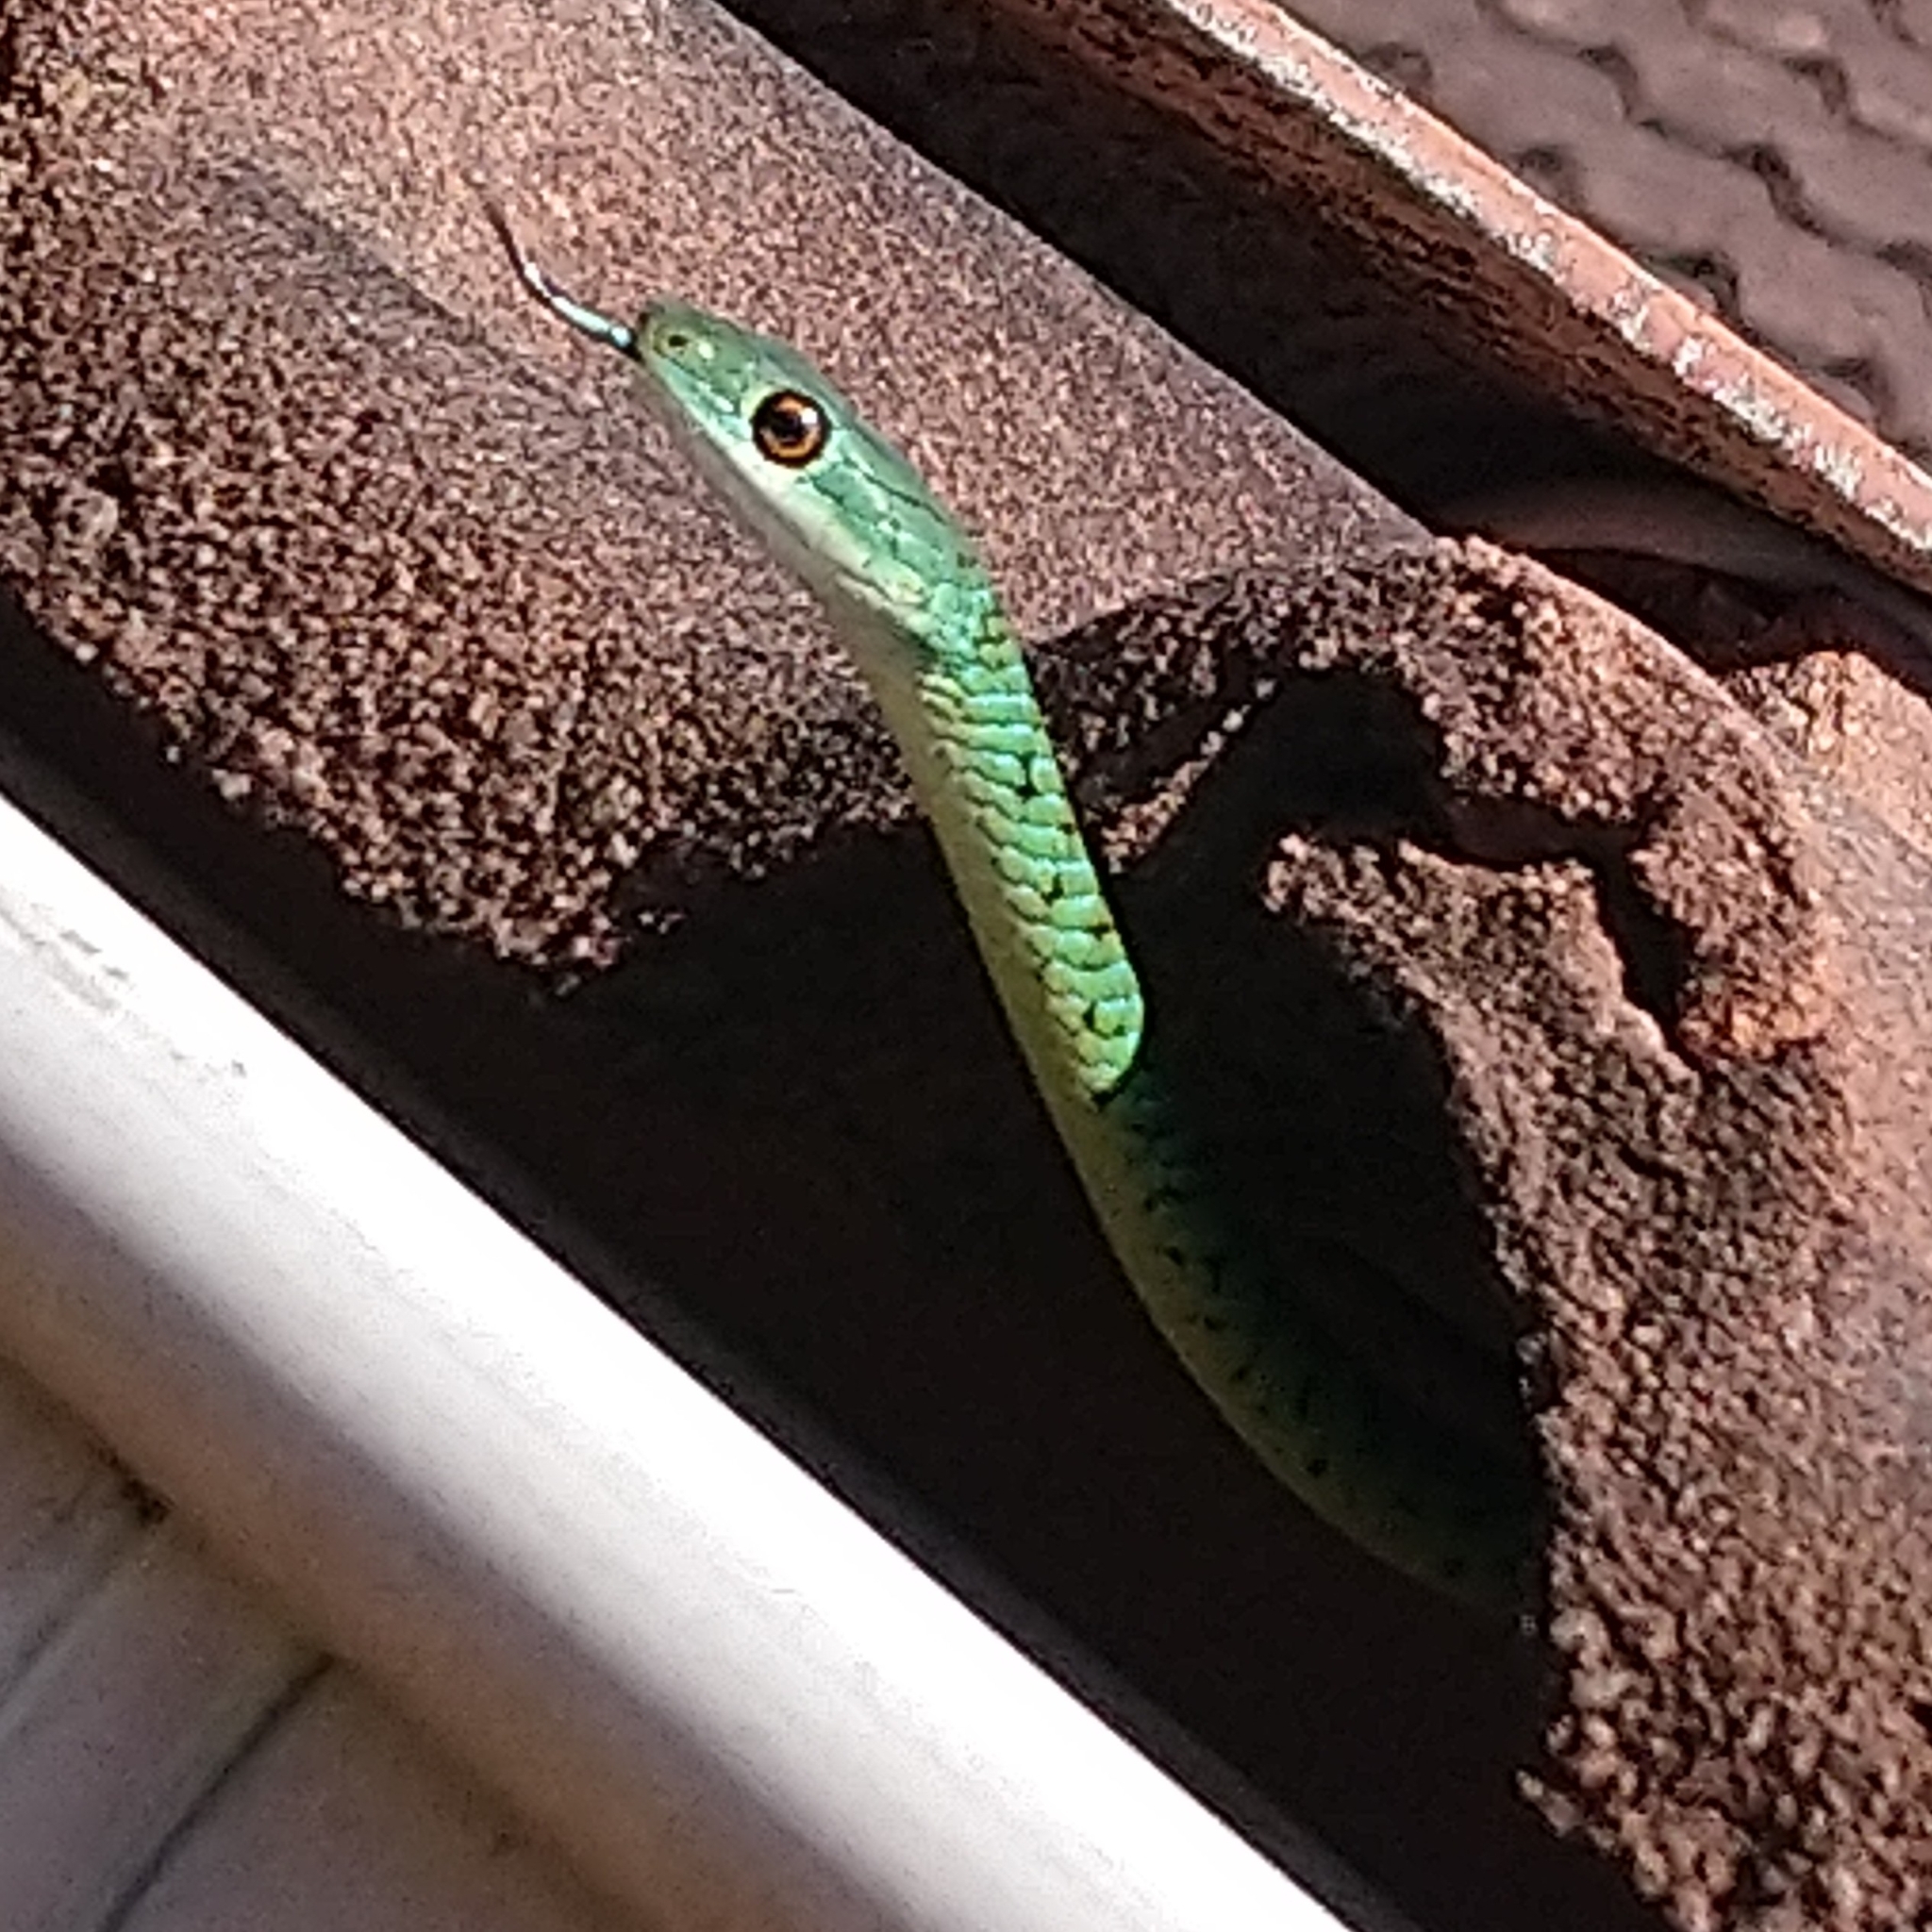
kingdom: Animalia
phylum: Chordata
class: Squamata
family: Colubridae
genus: Philothamnus
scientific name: Philothamnus semivariegatus
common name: Spotted bush snake
